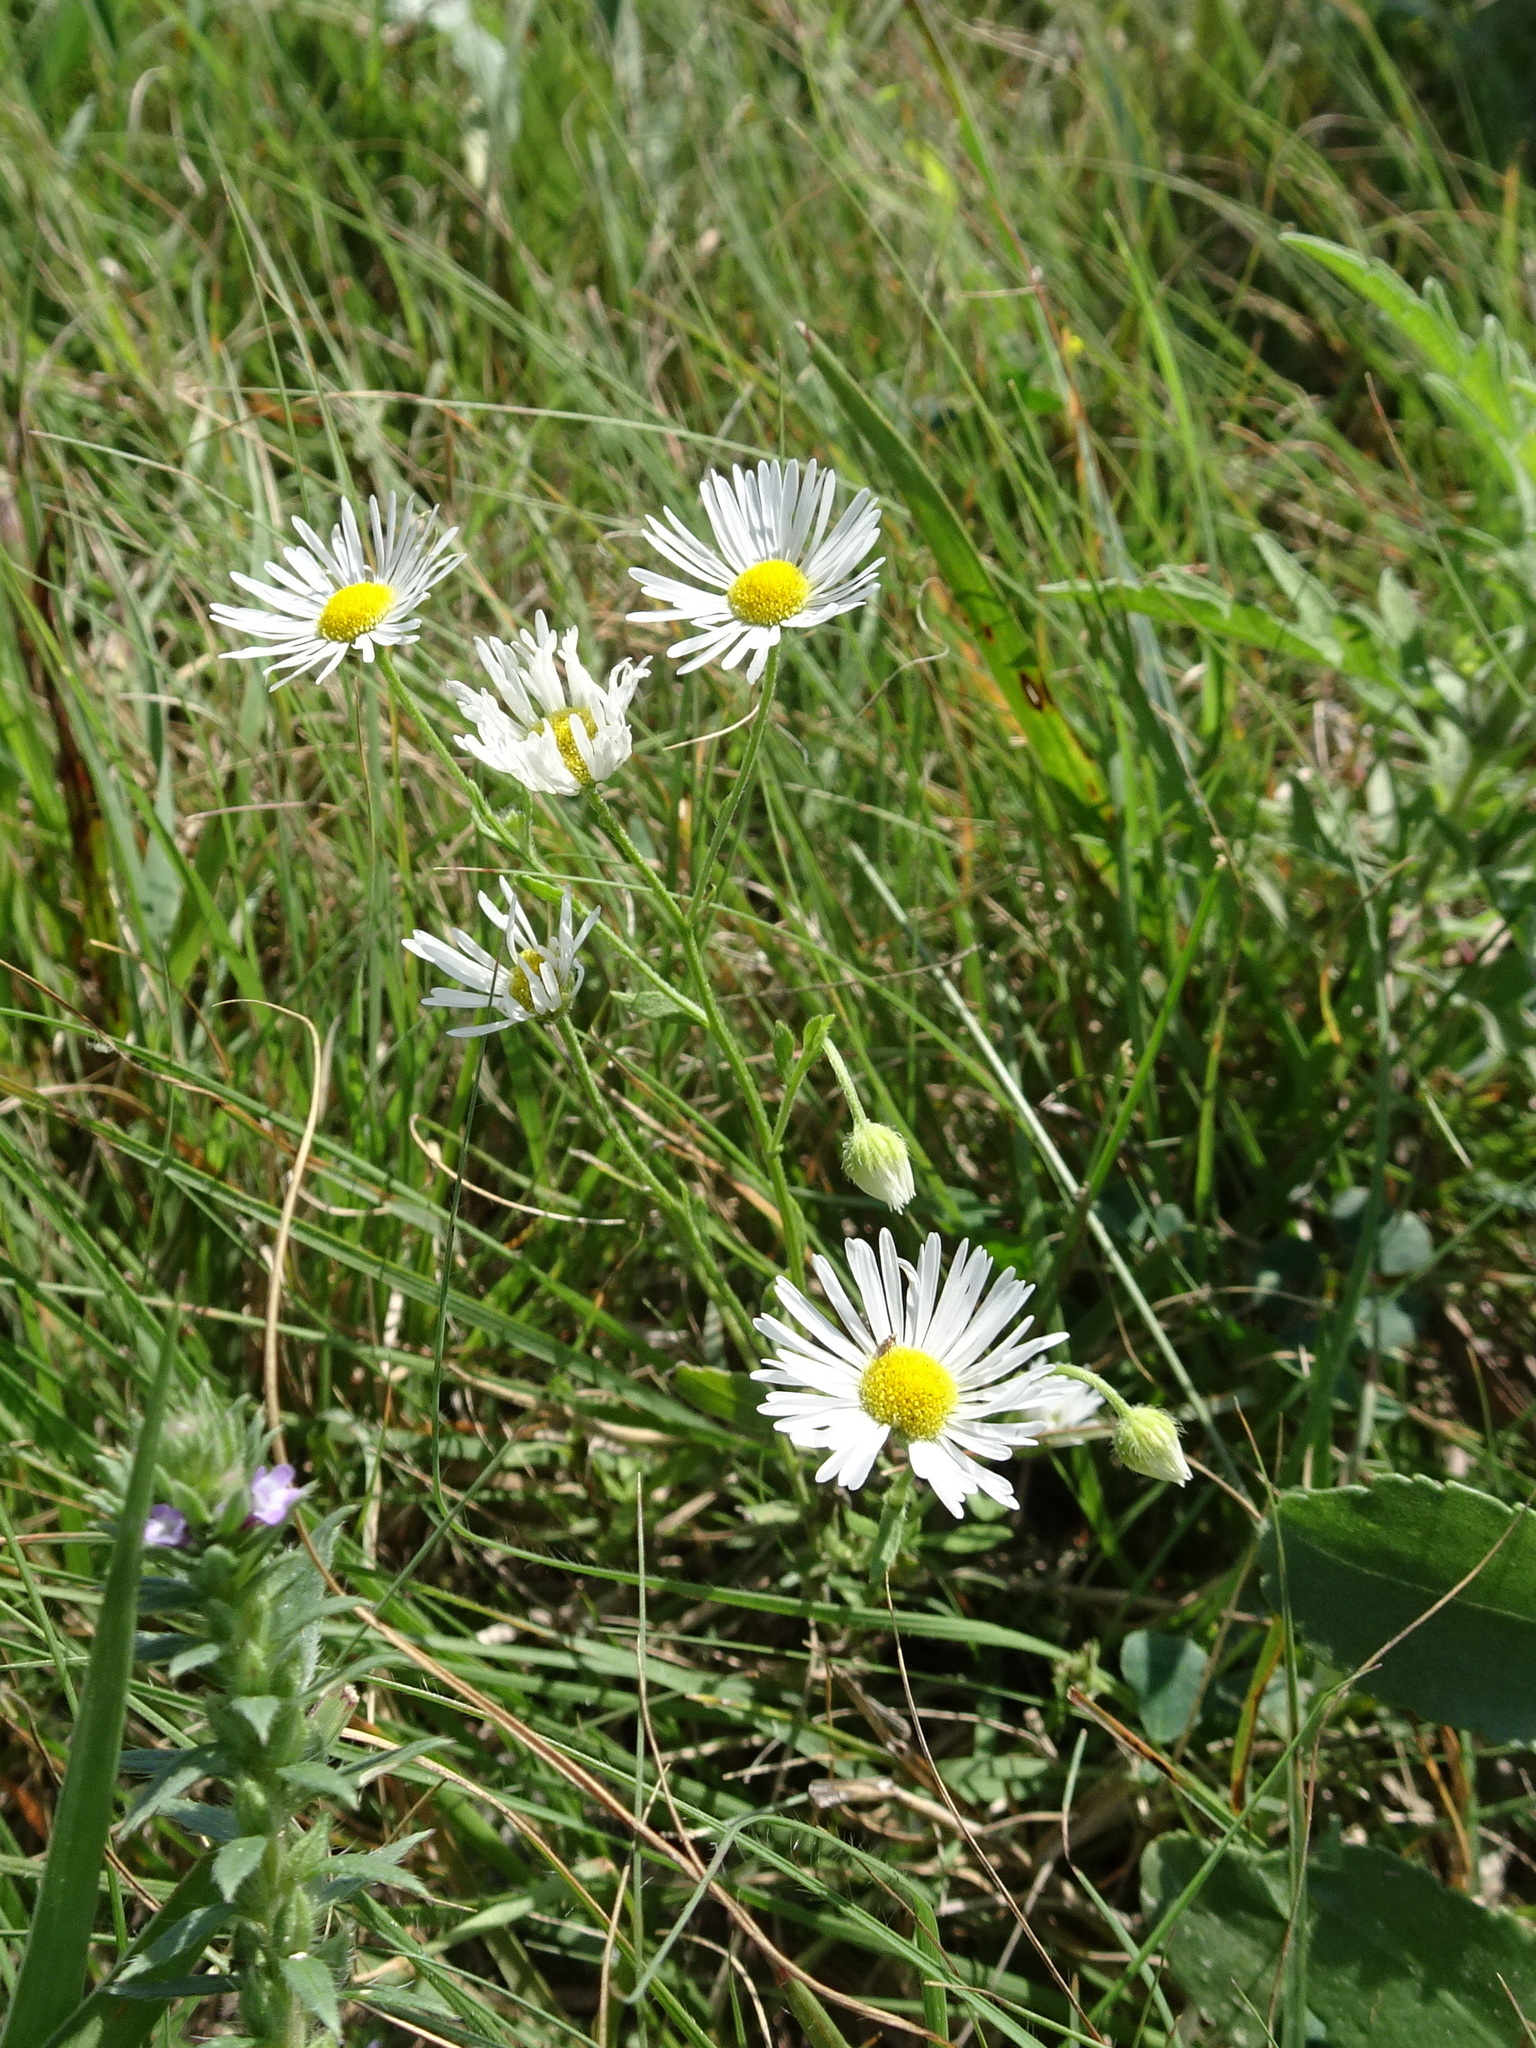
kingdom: Plantae
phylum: Tracheophyta
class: Magnoliopsida
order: Asterales
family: Asteraceae
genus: Erigeron
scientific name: Erigeron strigosus
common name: Common eastern fleabane
